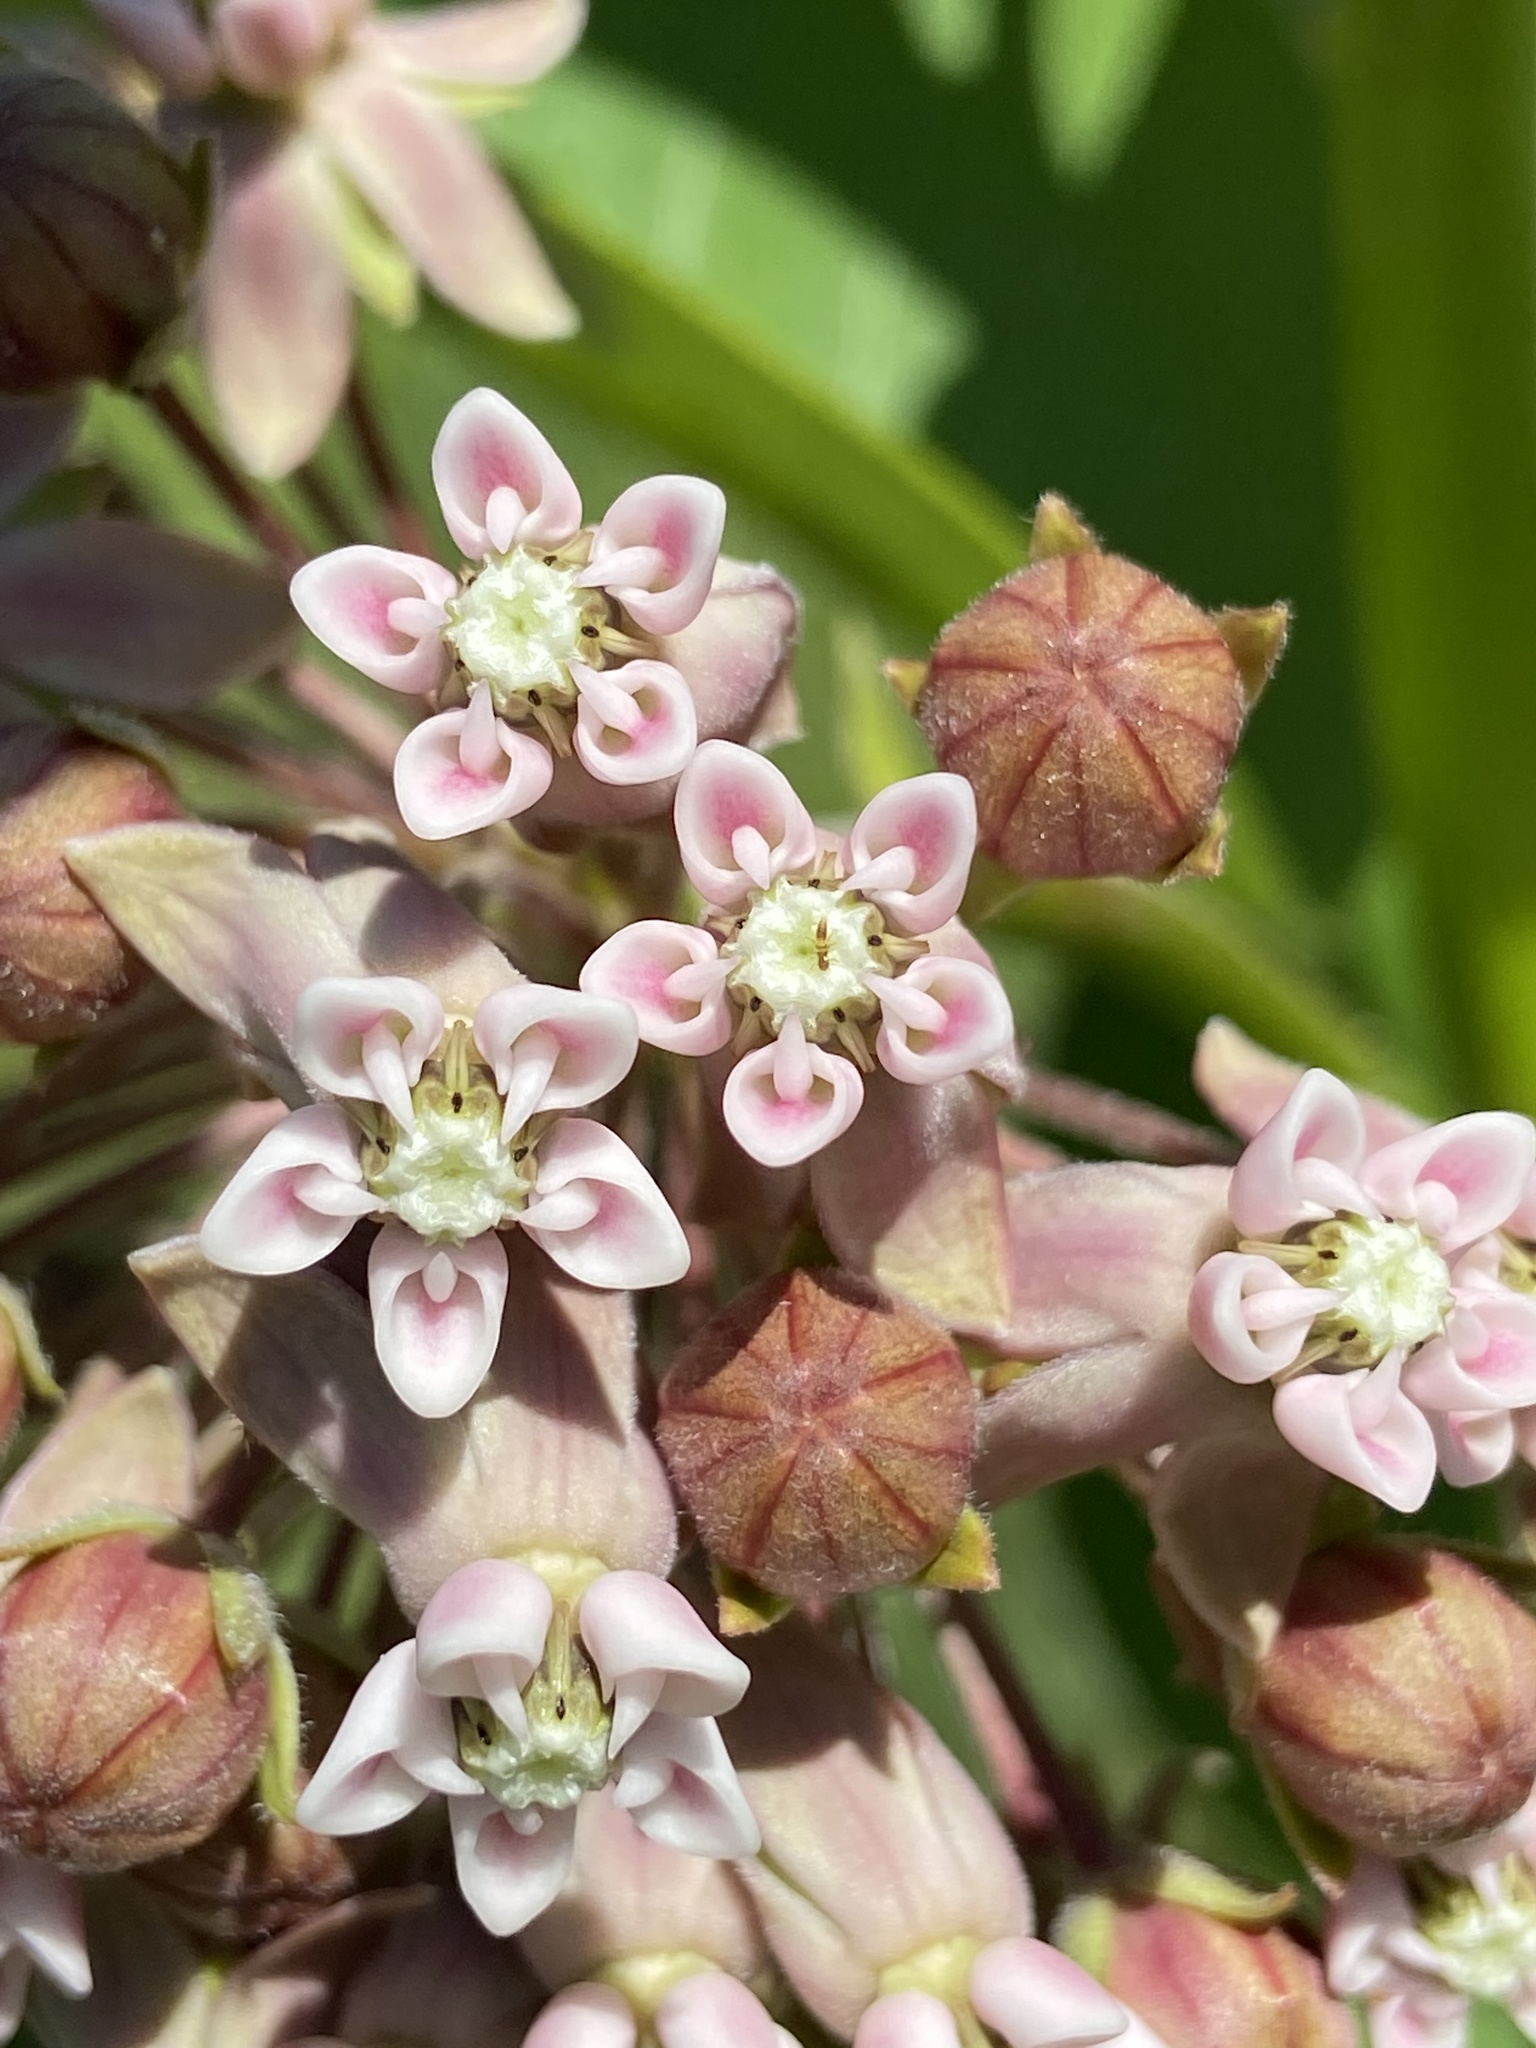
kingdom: Plantae
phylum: Tracheophyta
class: Magnoliopsida
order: Gentianales
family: Apocynaceae
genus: Asclepias
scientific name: Asclepias syriaca
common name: Common milkweed
